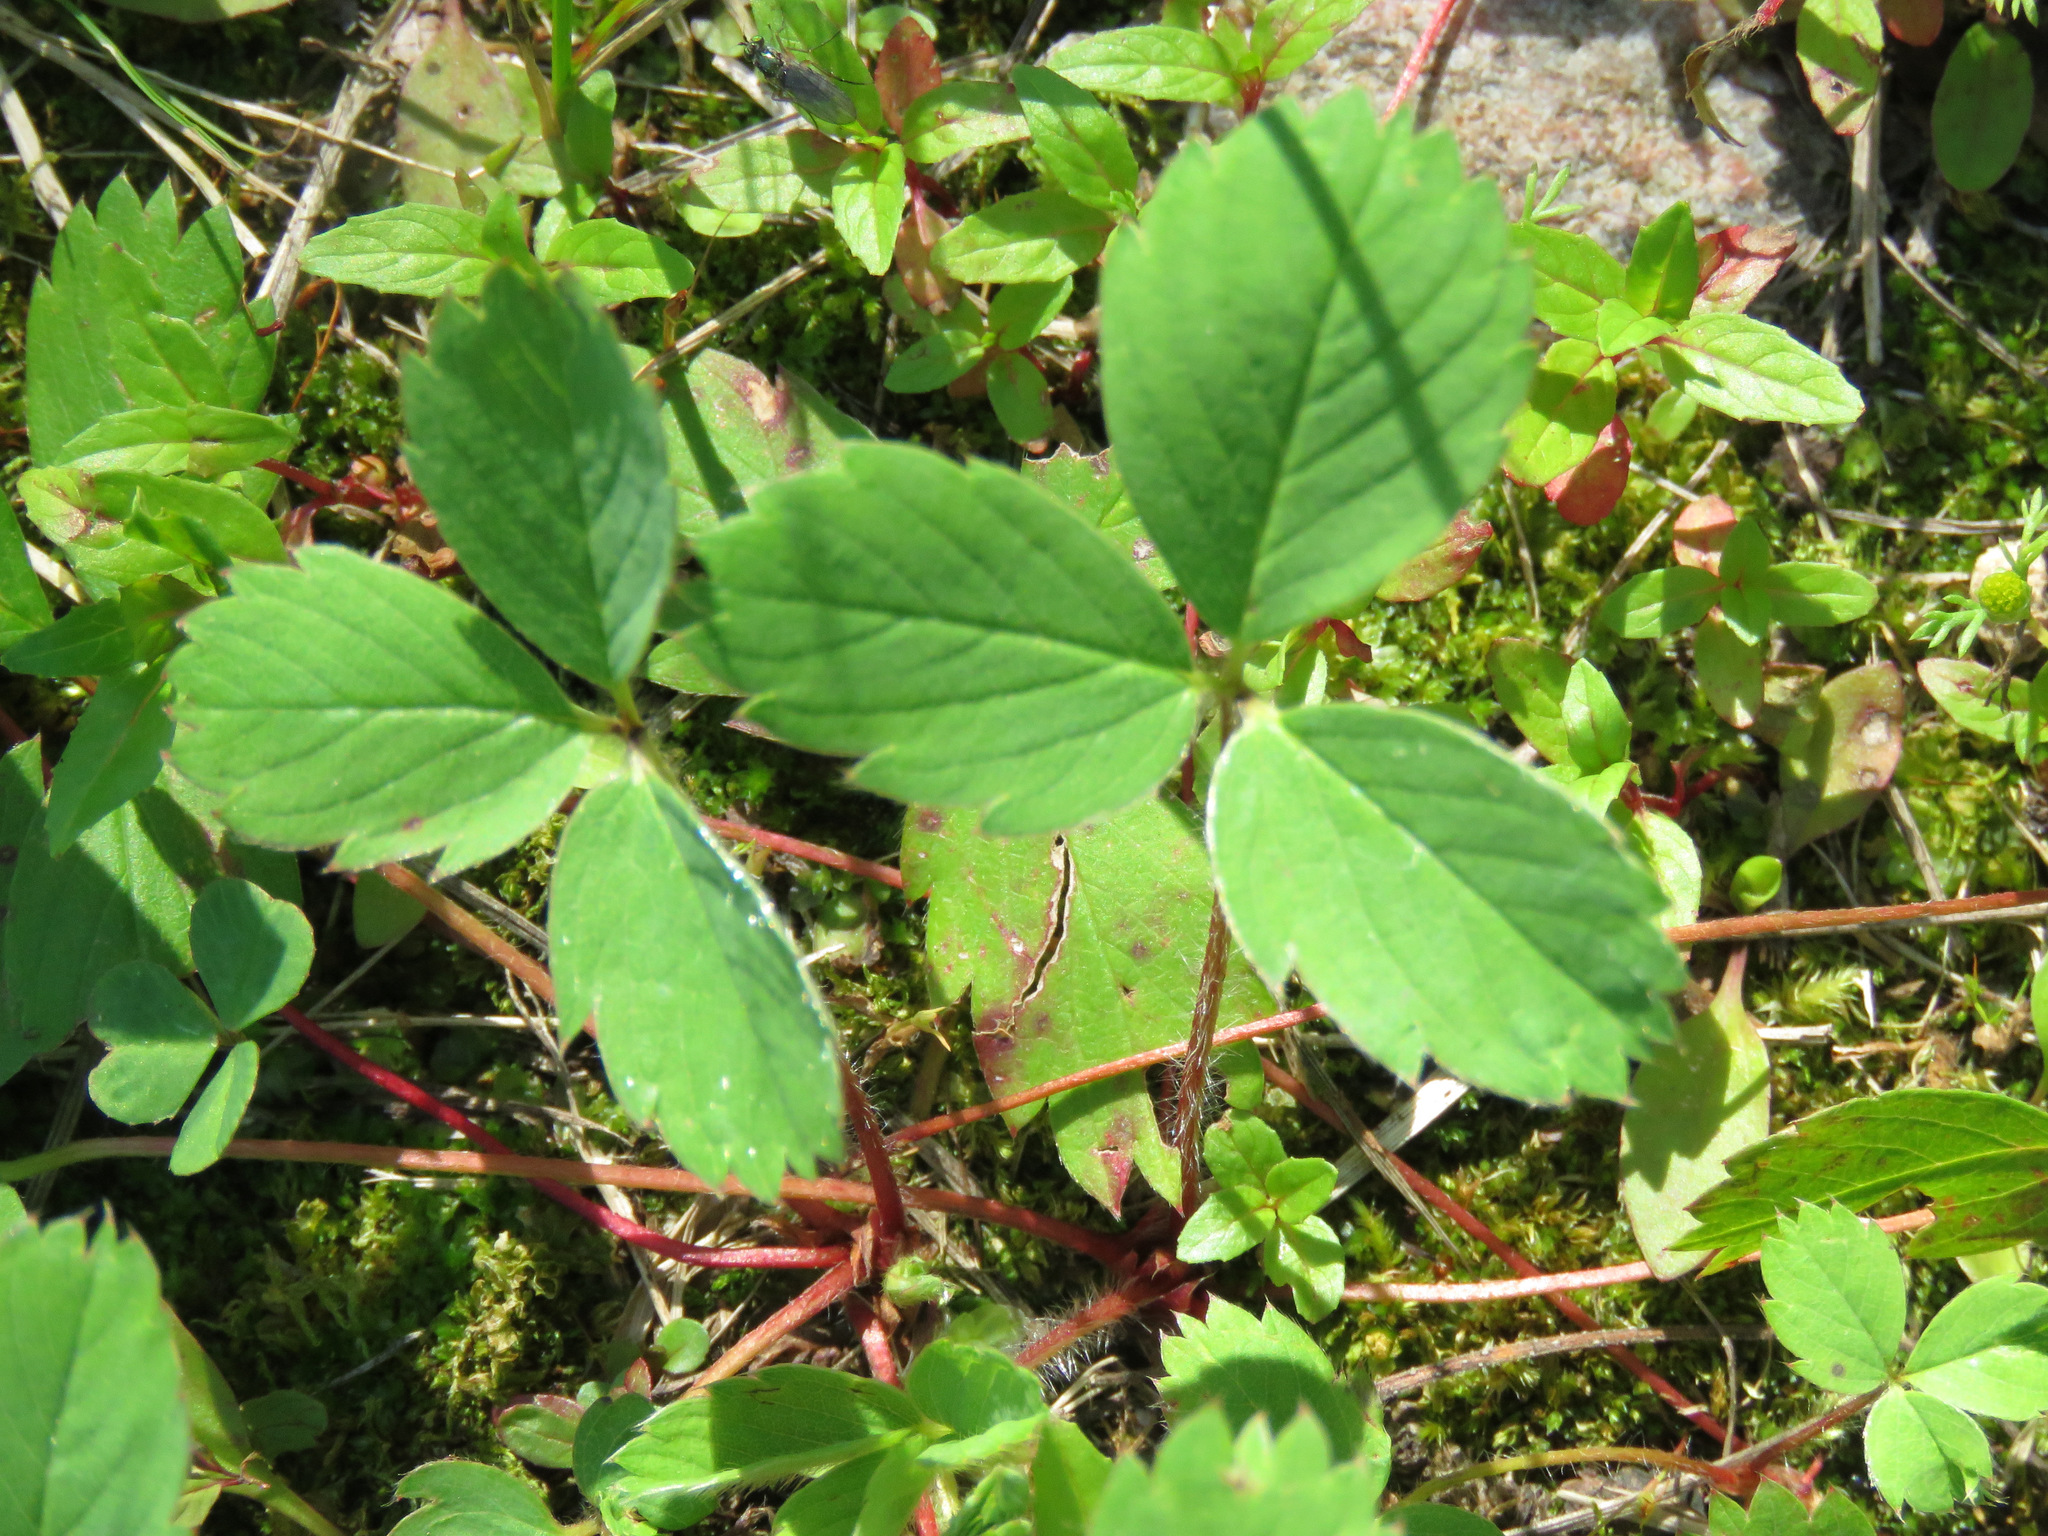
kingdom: Plantae
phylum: Tracheophyta
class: Magnoliopsida
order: Rosales
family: Rosaceae
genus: Fragaria
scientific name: Fragaria virginiana
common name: Thickleaved wild strawberry
